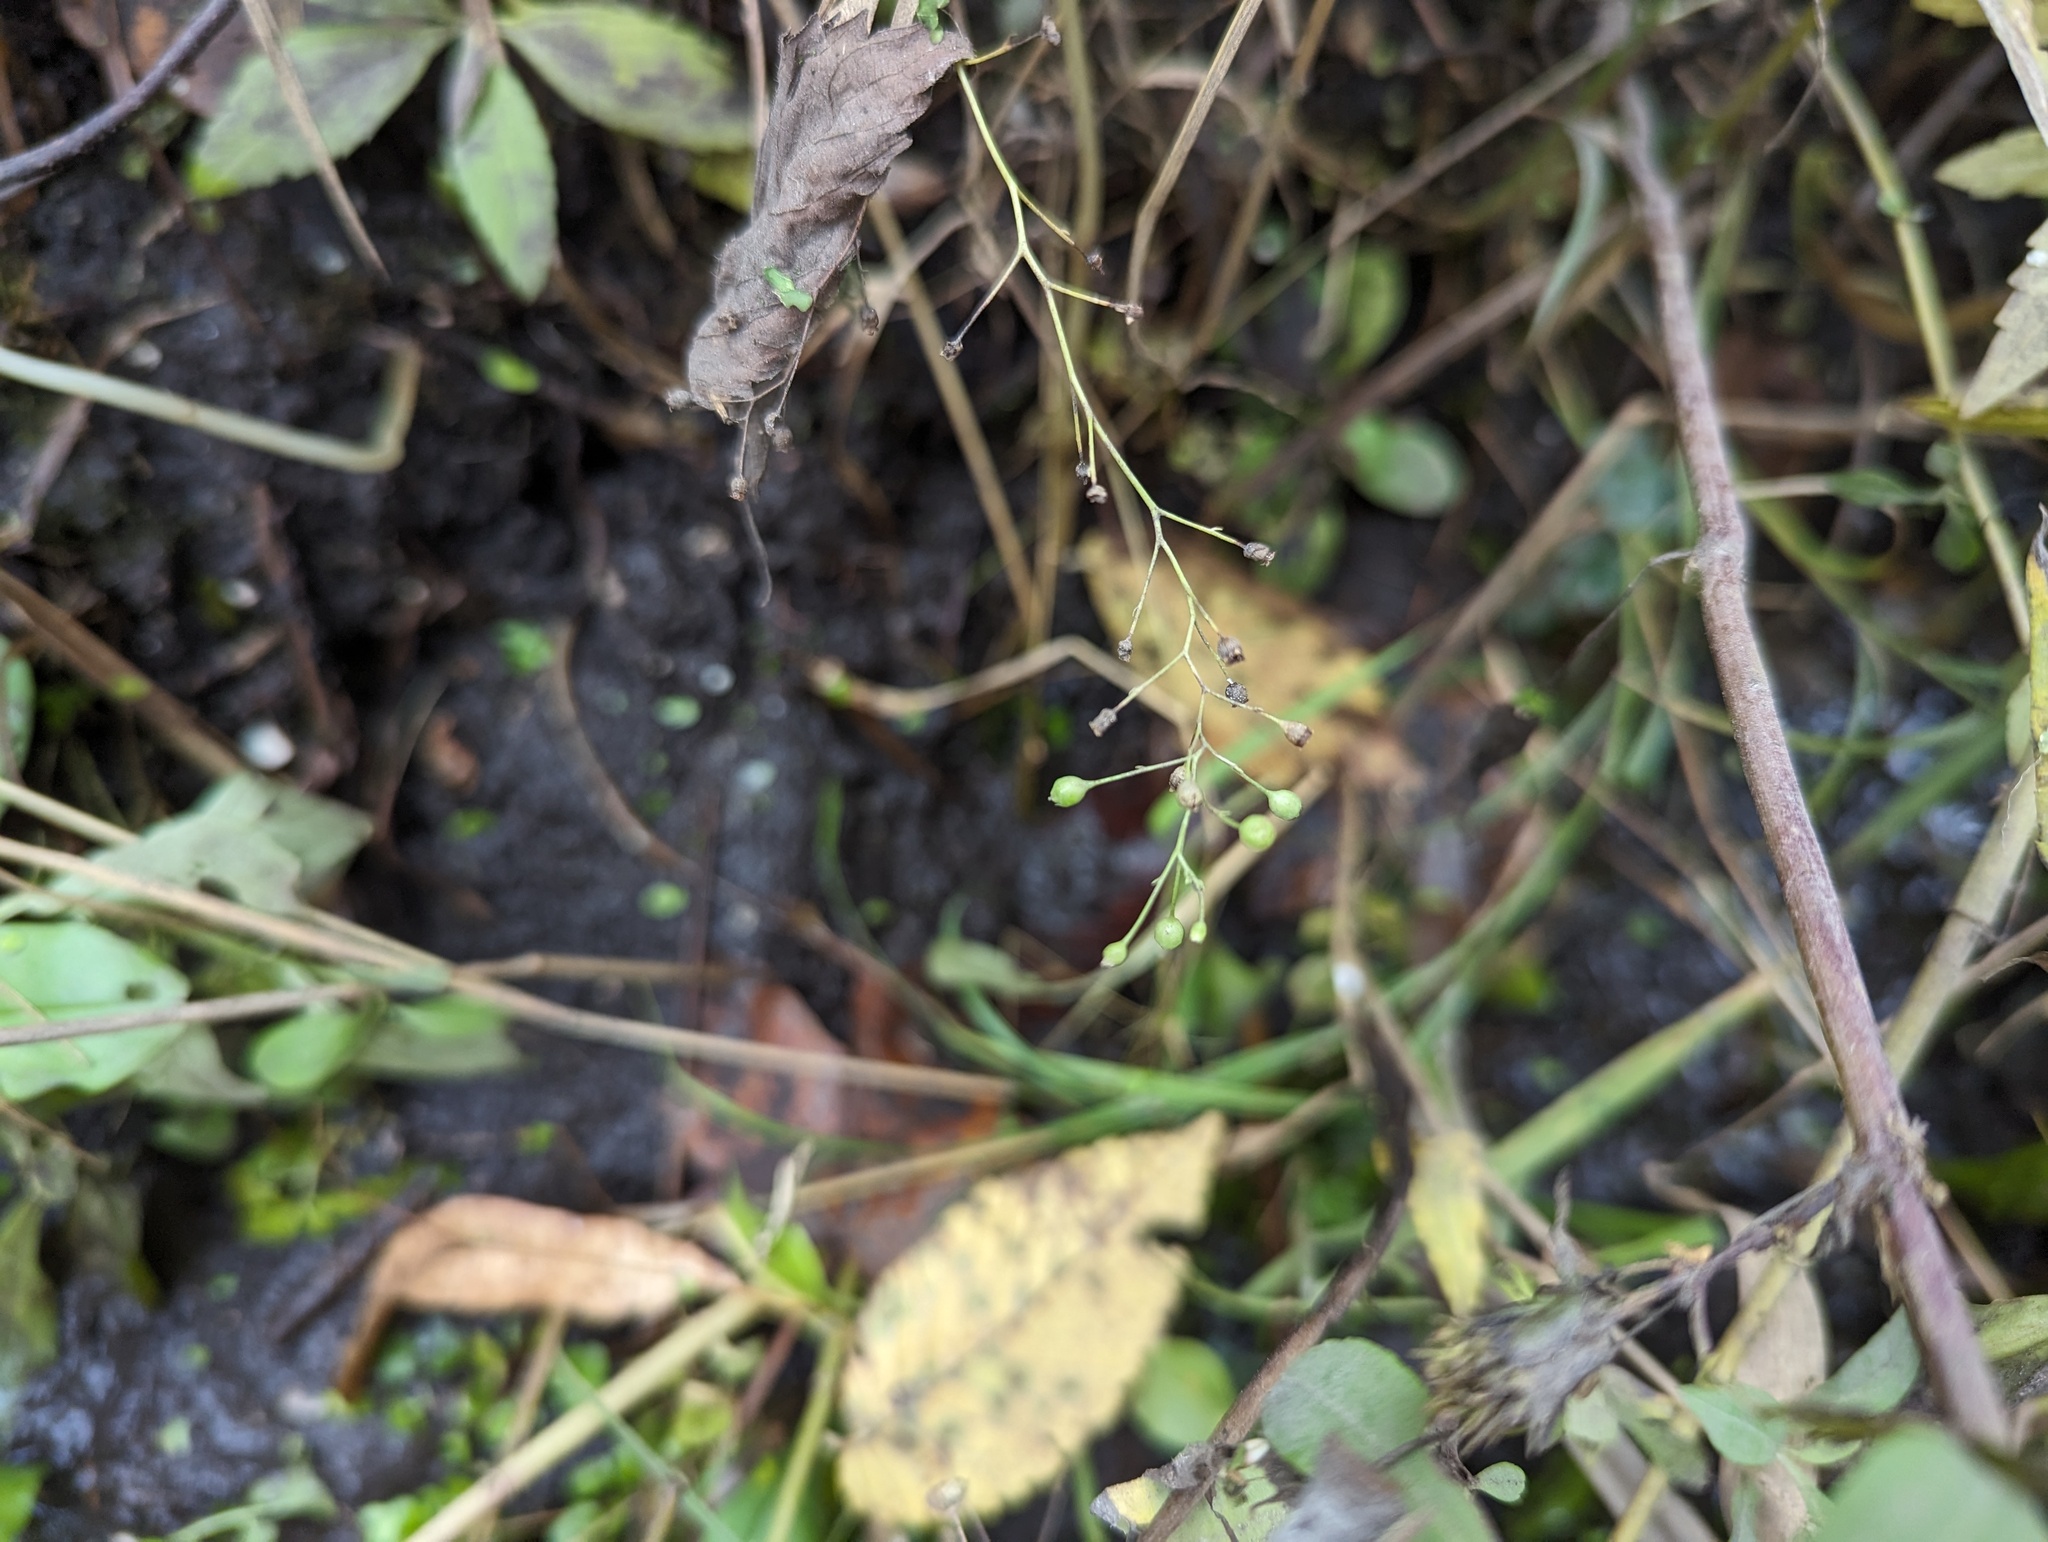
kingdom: Plantae
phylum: Tracheophyta
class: Magnoliopsida
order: Ericales
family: Primulaceae
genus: Samolus
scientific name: Samolus parviflorus
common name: False water pimpernel
